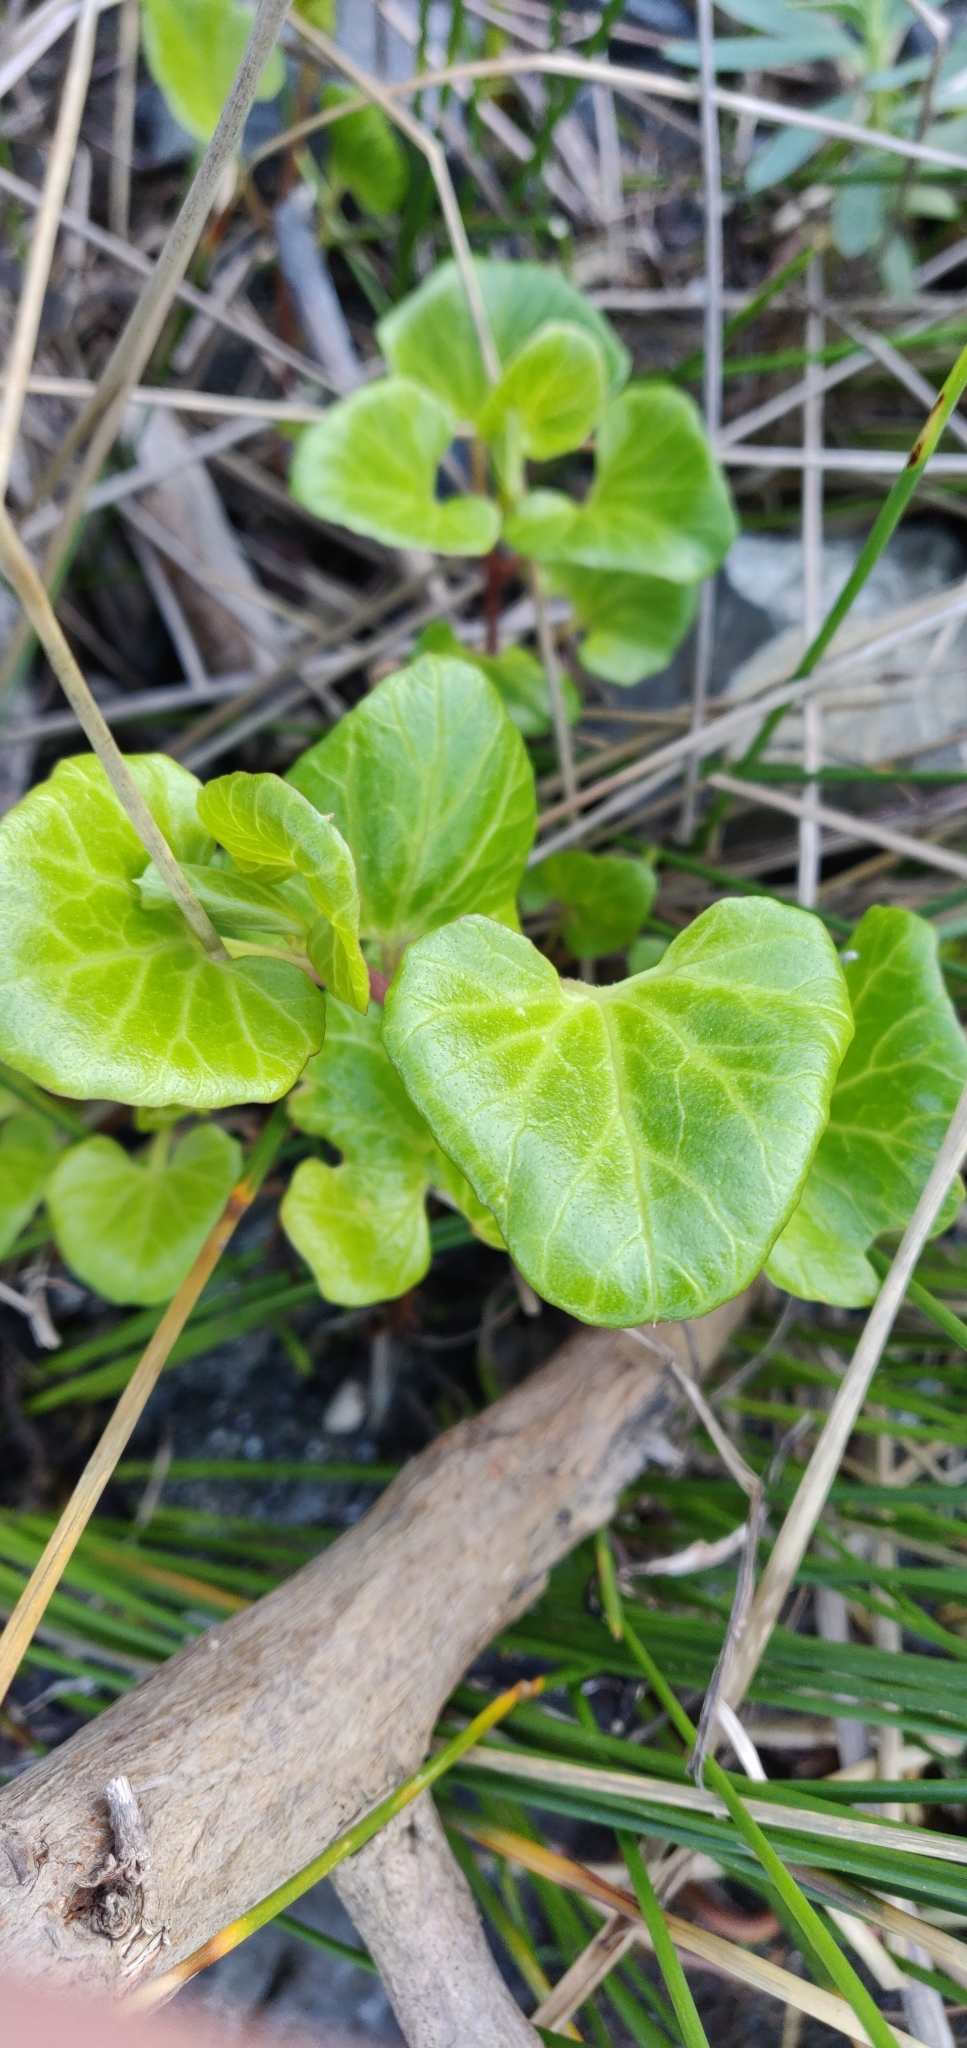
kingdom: Plantae
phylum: Tracheophyta
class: Magnoliopsida
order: Solanales
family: Convolvulaceae
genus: Calystegia
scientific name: Calystegia soldanella
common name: Sea bindweed
